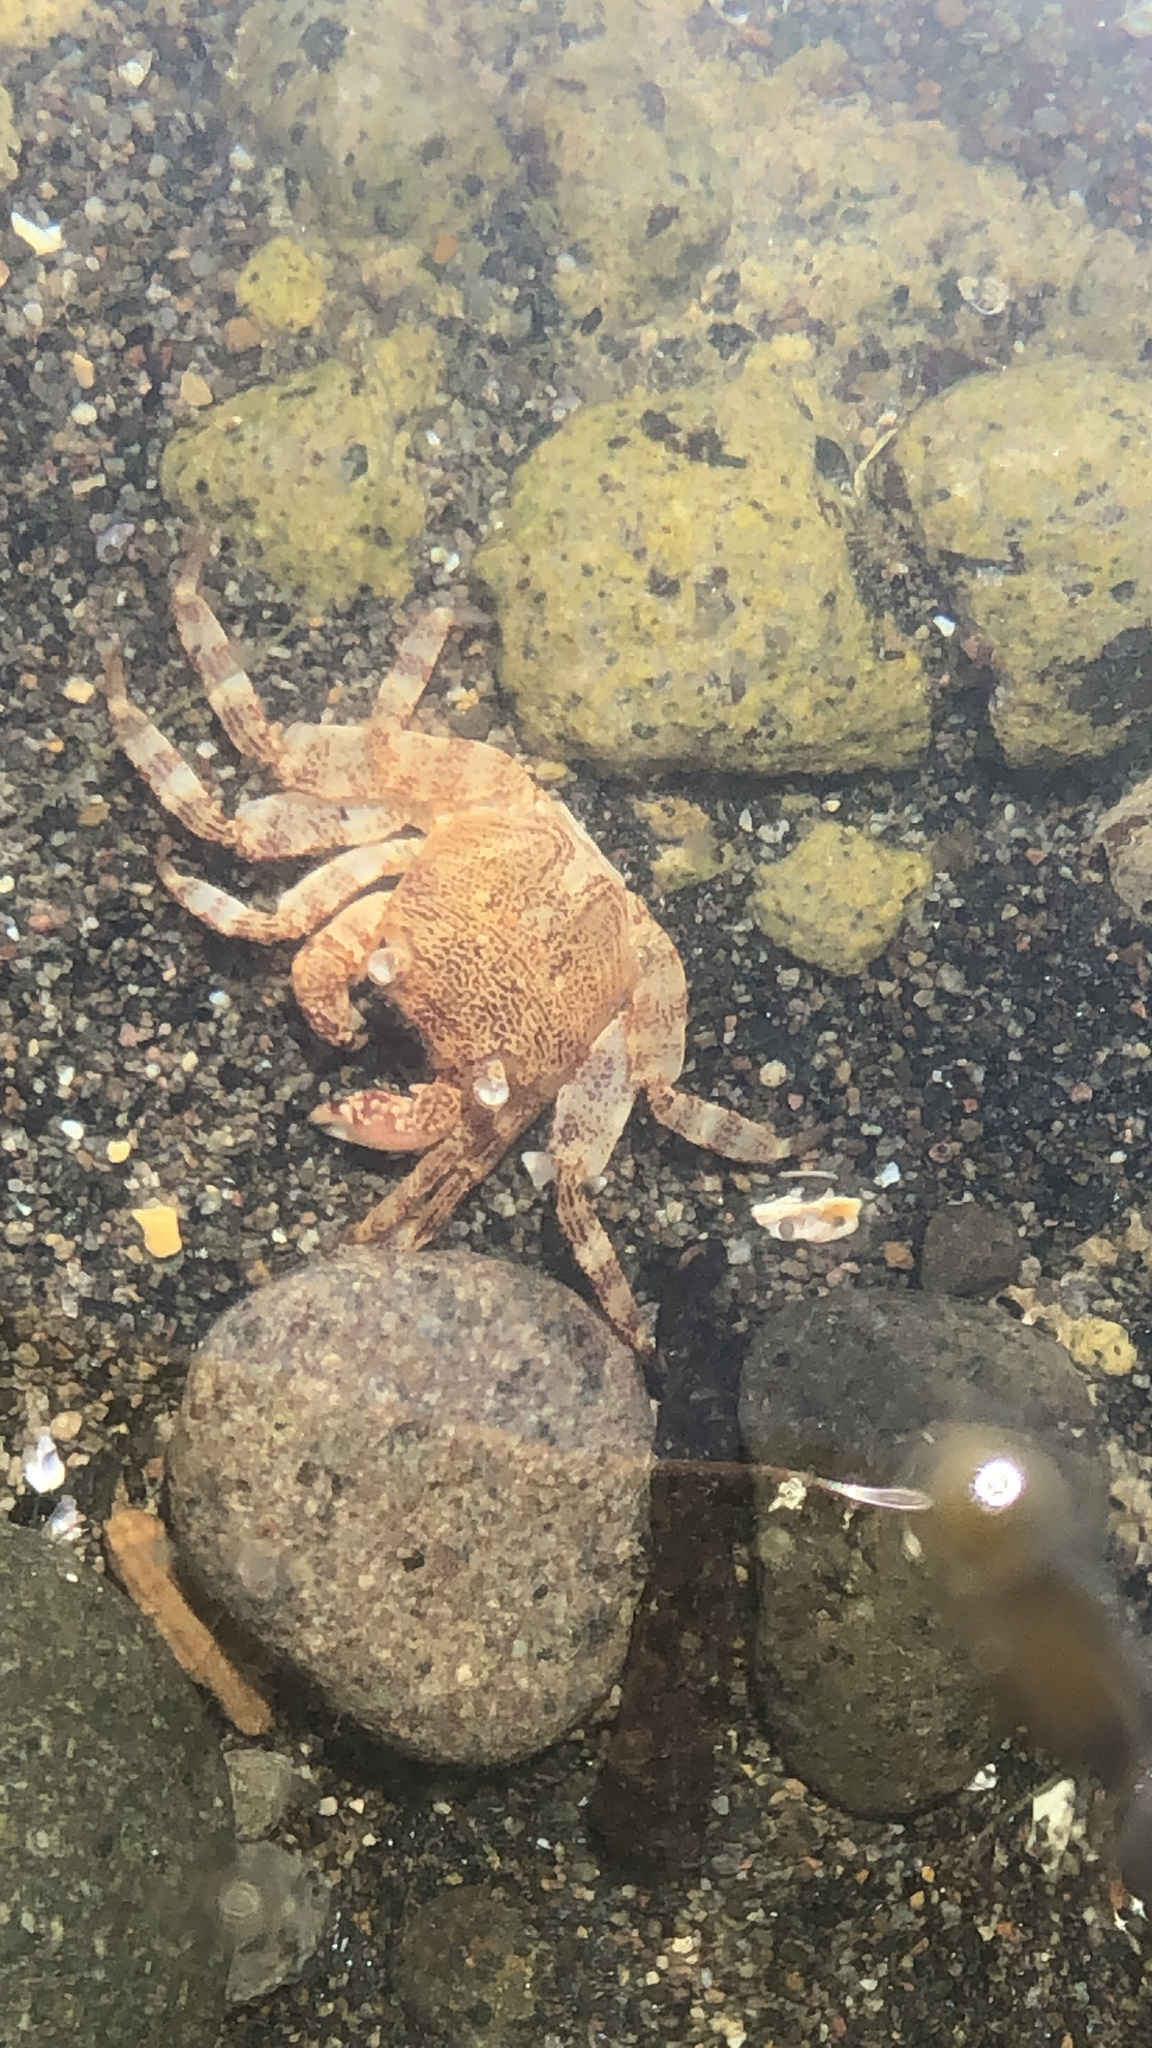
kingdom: Animalia
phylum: Arthropoda
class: Malacostraca
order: Decapoda
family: Grapsidae
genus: Leptograpsus
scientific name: Leptograpsus variegatus
